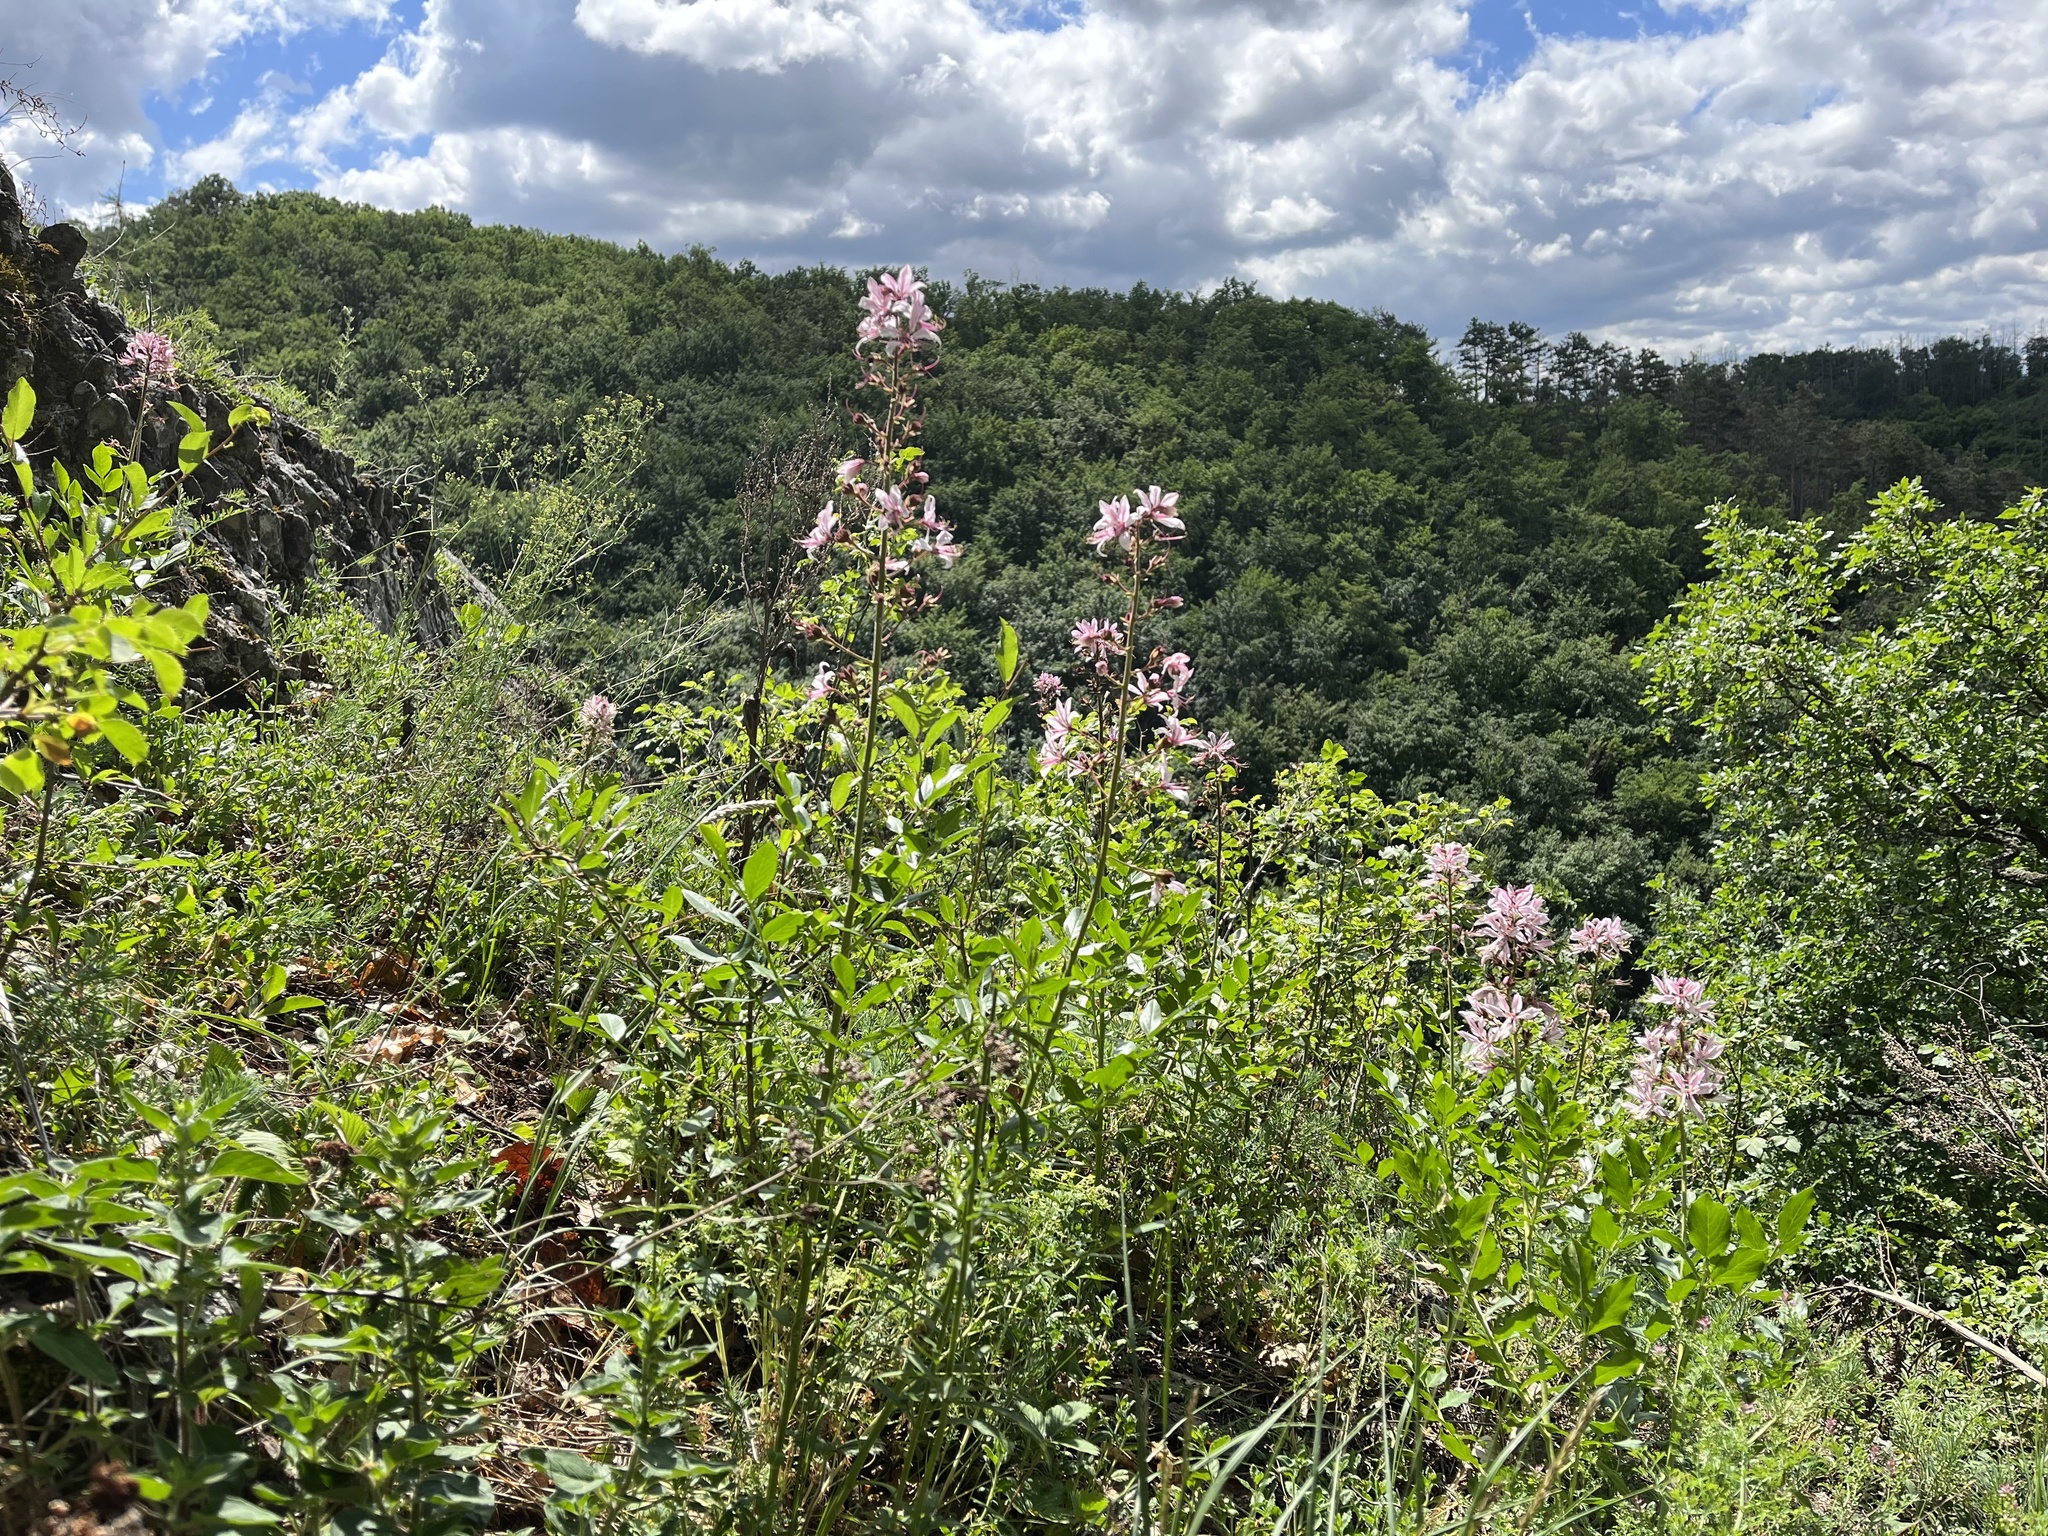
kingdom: Plantae
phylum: Tracheophyta
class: Magnoliopsida
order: Sapindales
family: Rutaceae
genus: Dictamnus
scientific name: Dictamnus albus
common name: Gasplant
